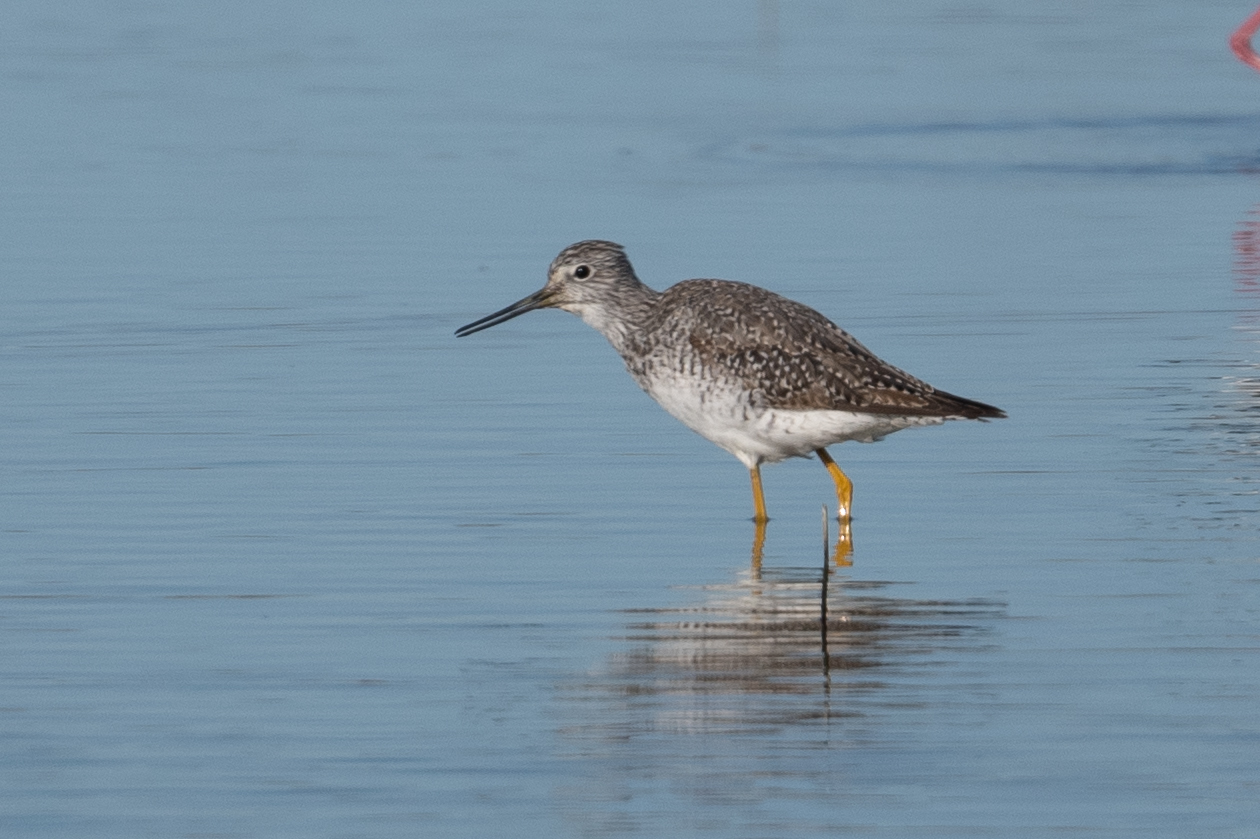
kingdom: Animalia
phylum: Chordata
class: Aves
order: Charadriiformes
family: Scolopacidae
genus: Tringa
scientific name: Tringa melanoleuca
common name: Greater yellowlegs
